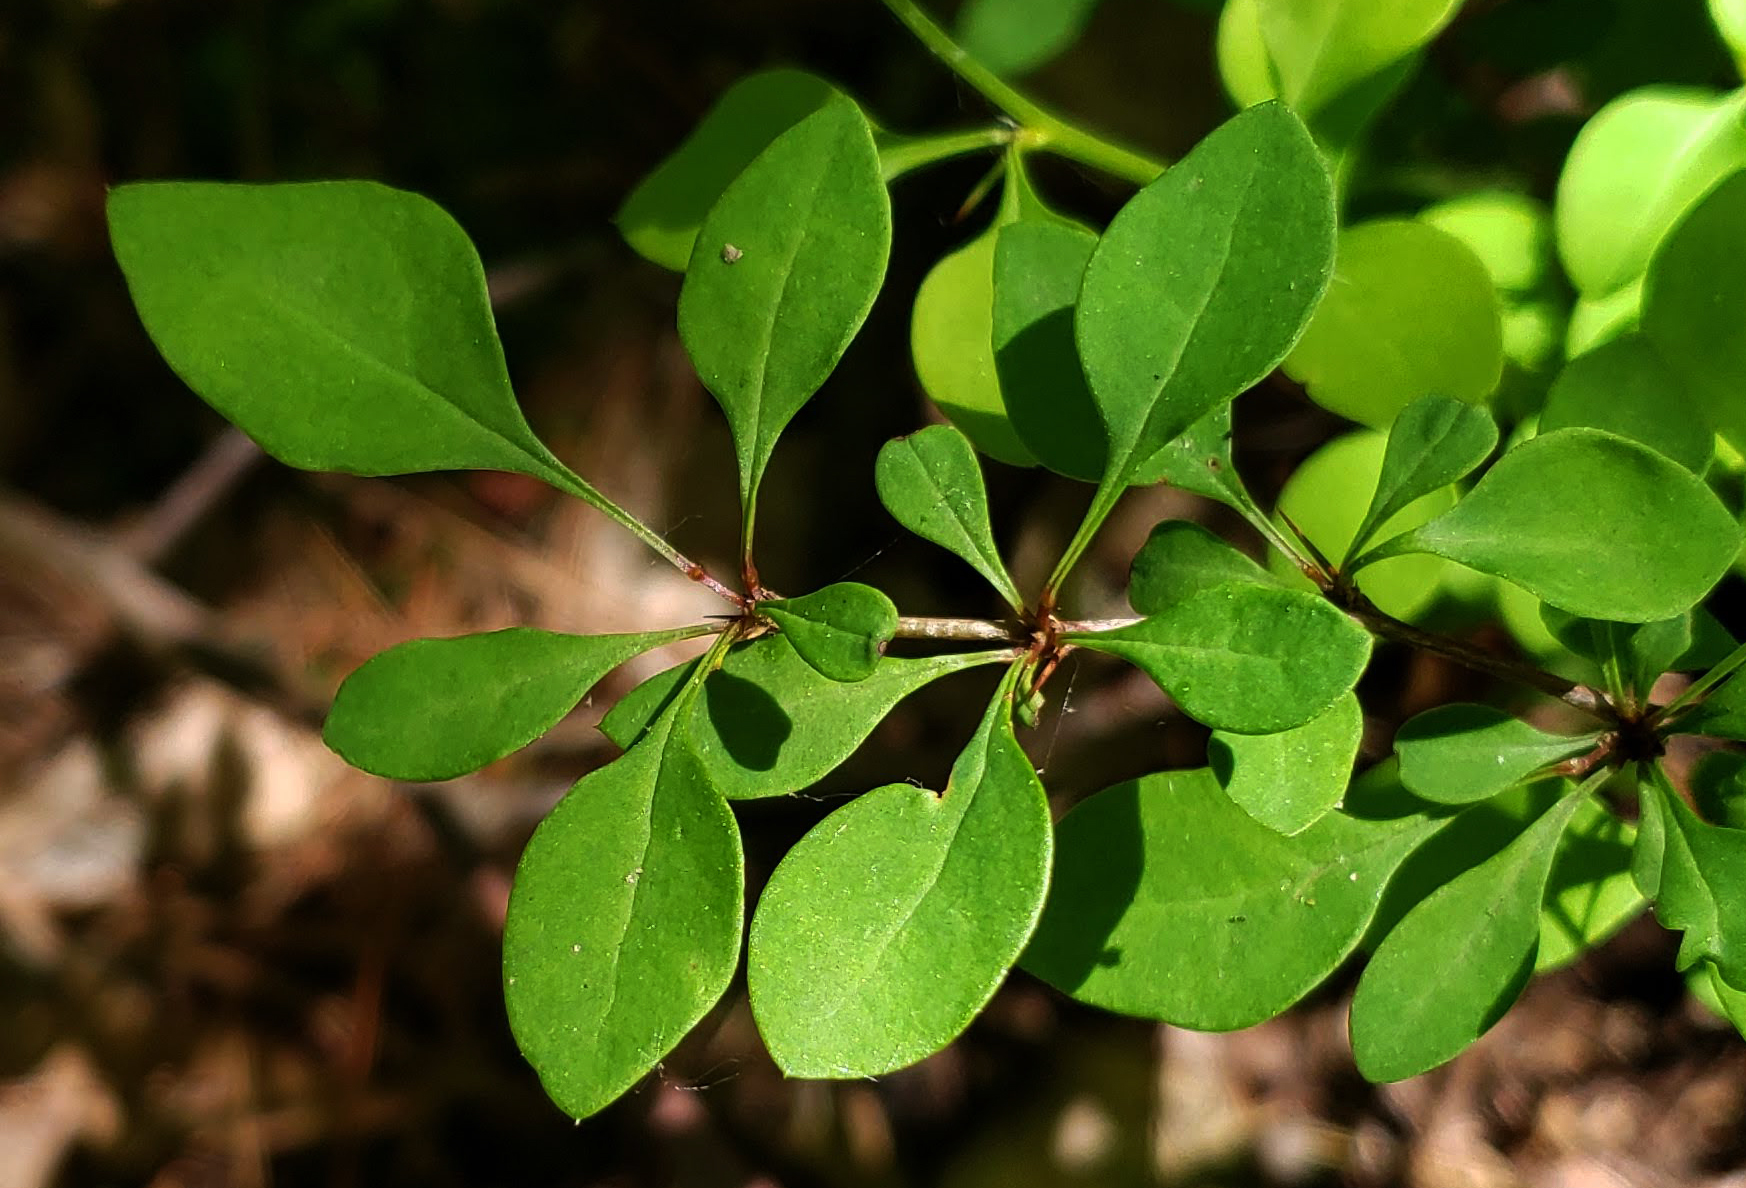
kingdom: Plantae
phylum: Tracheophyta
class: Magnoliopsida
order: Ranunculales
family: Berberidaceae
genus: Berberis
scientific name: Berberis thunbergii
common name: Japanese barberry
